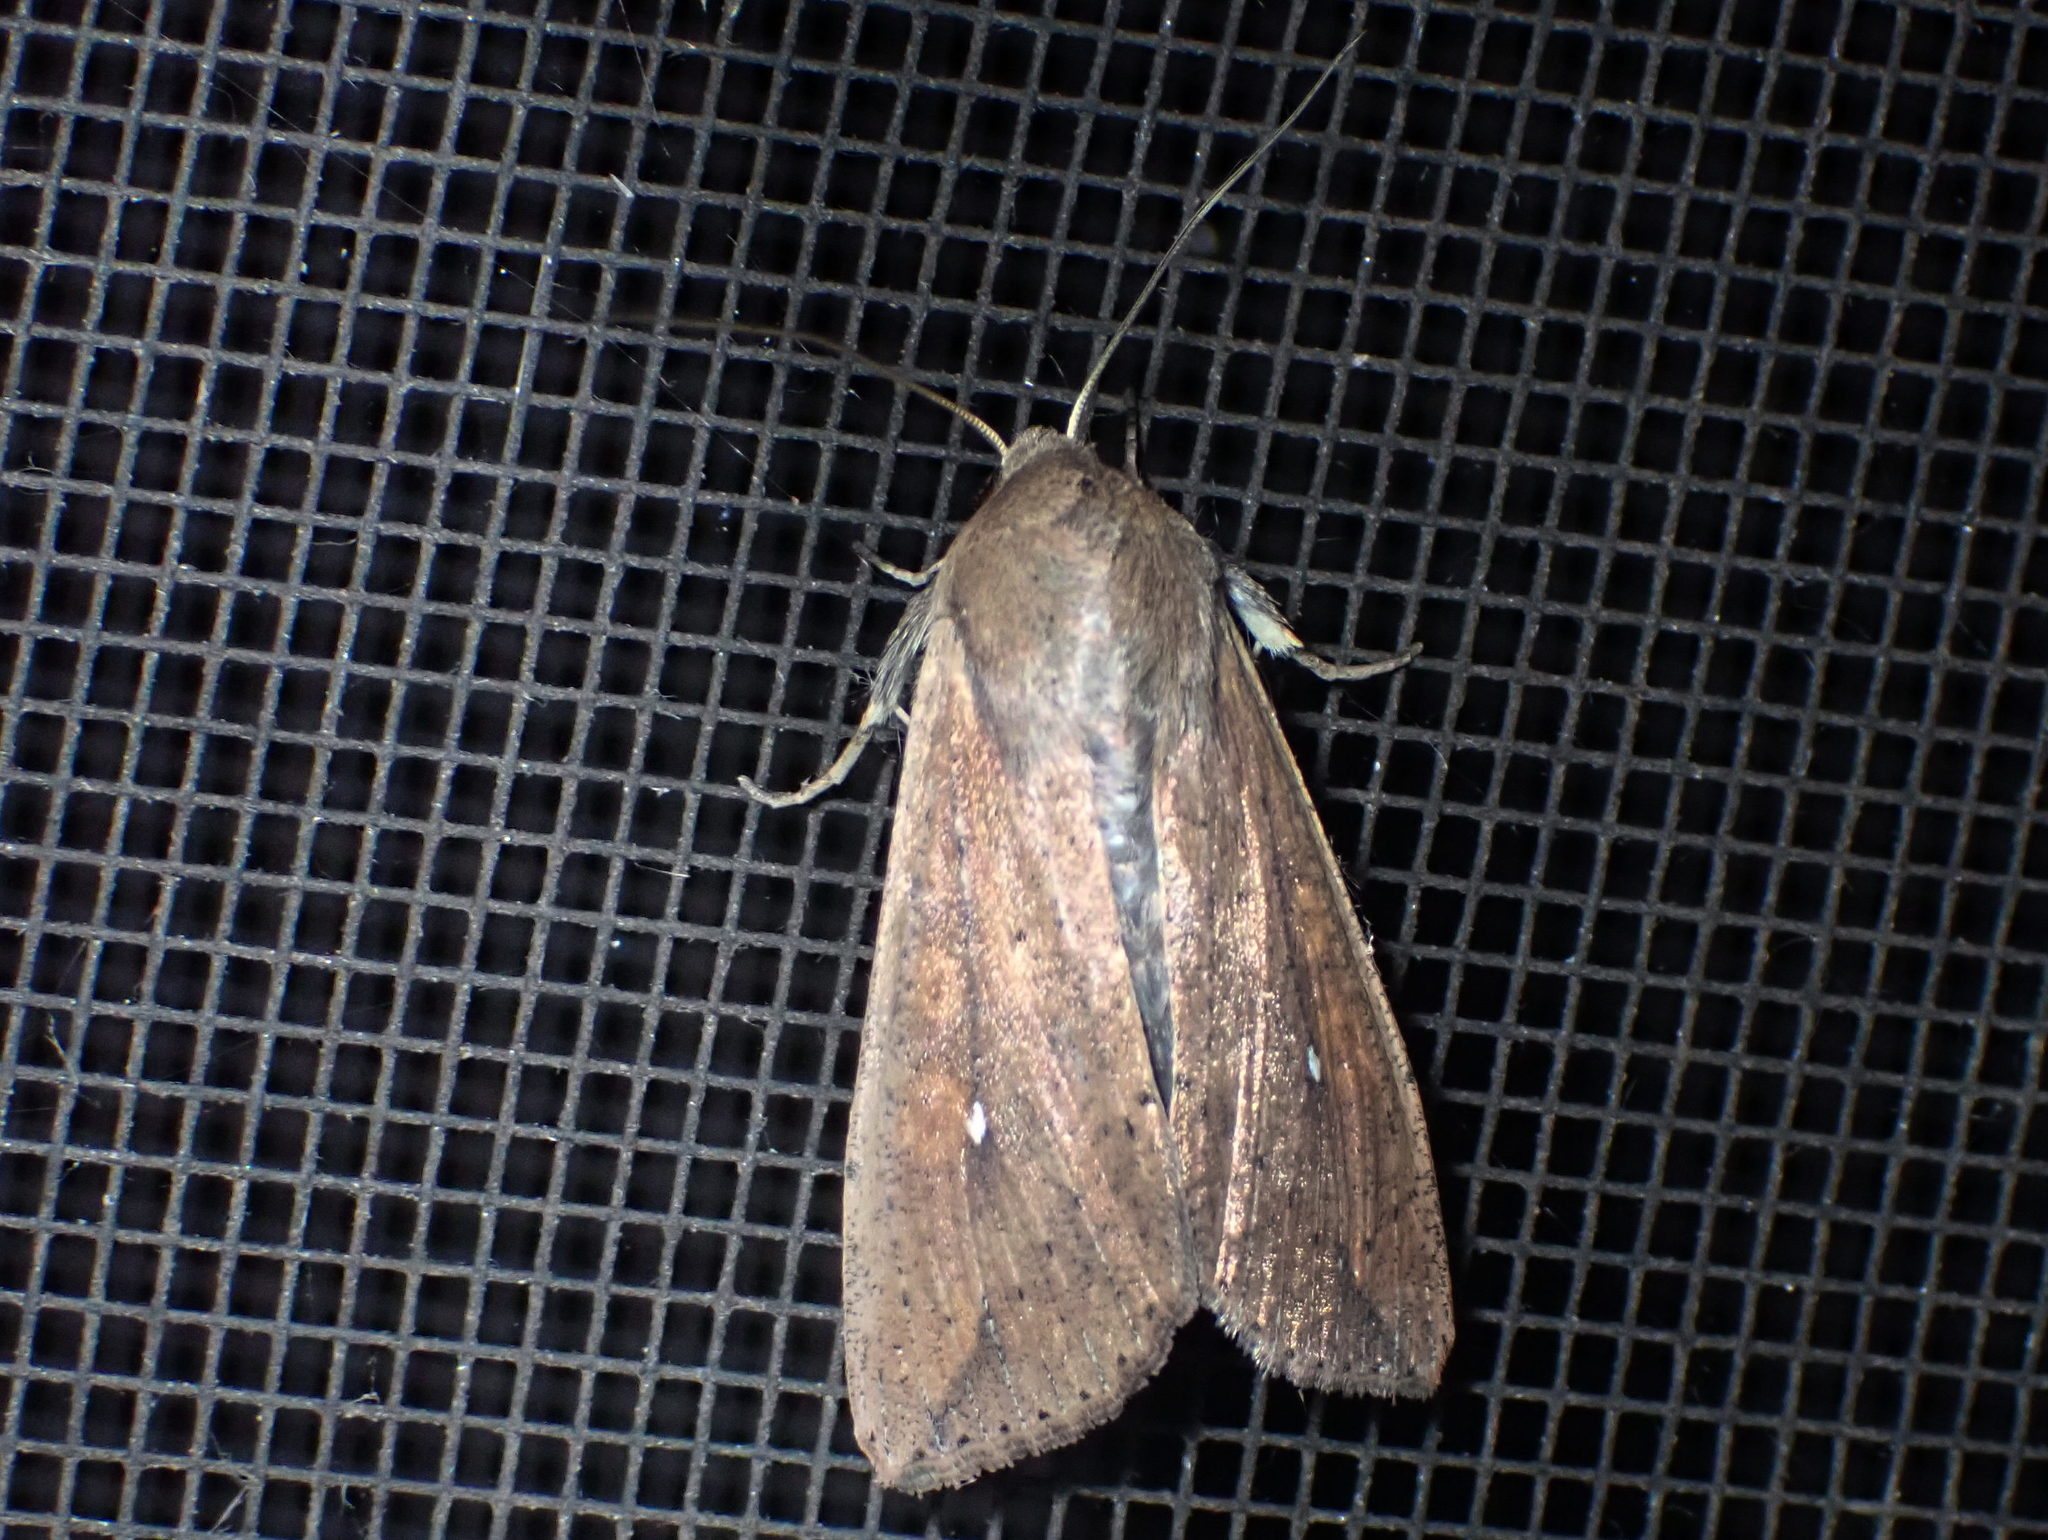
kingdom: Animalia
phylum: Arthropoda
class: Insecta
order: Lepidoptera
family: Noctuidae
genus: Mythimna
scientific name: Mythimna unipuncta
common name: White-speck
